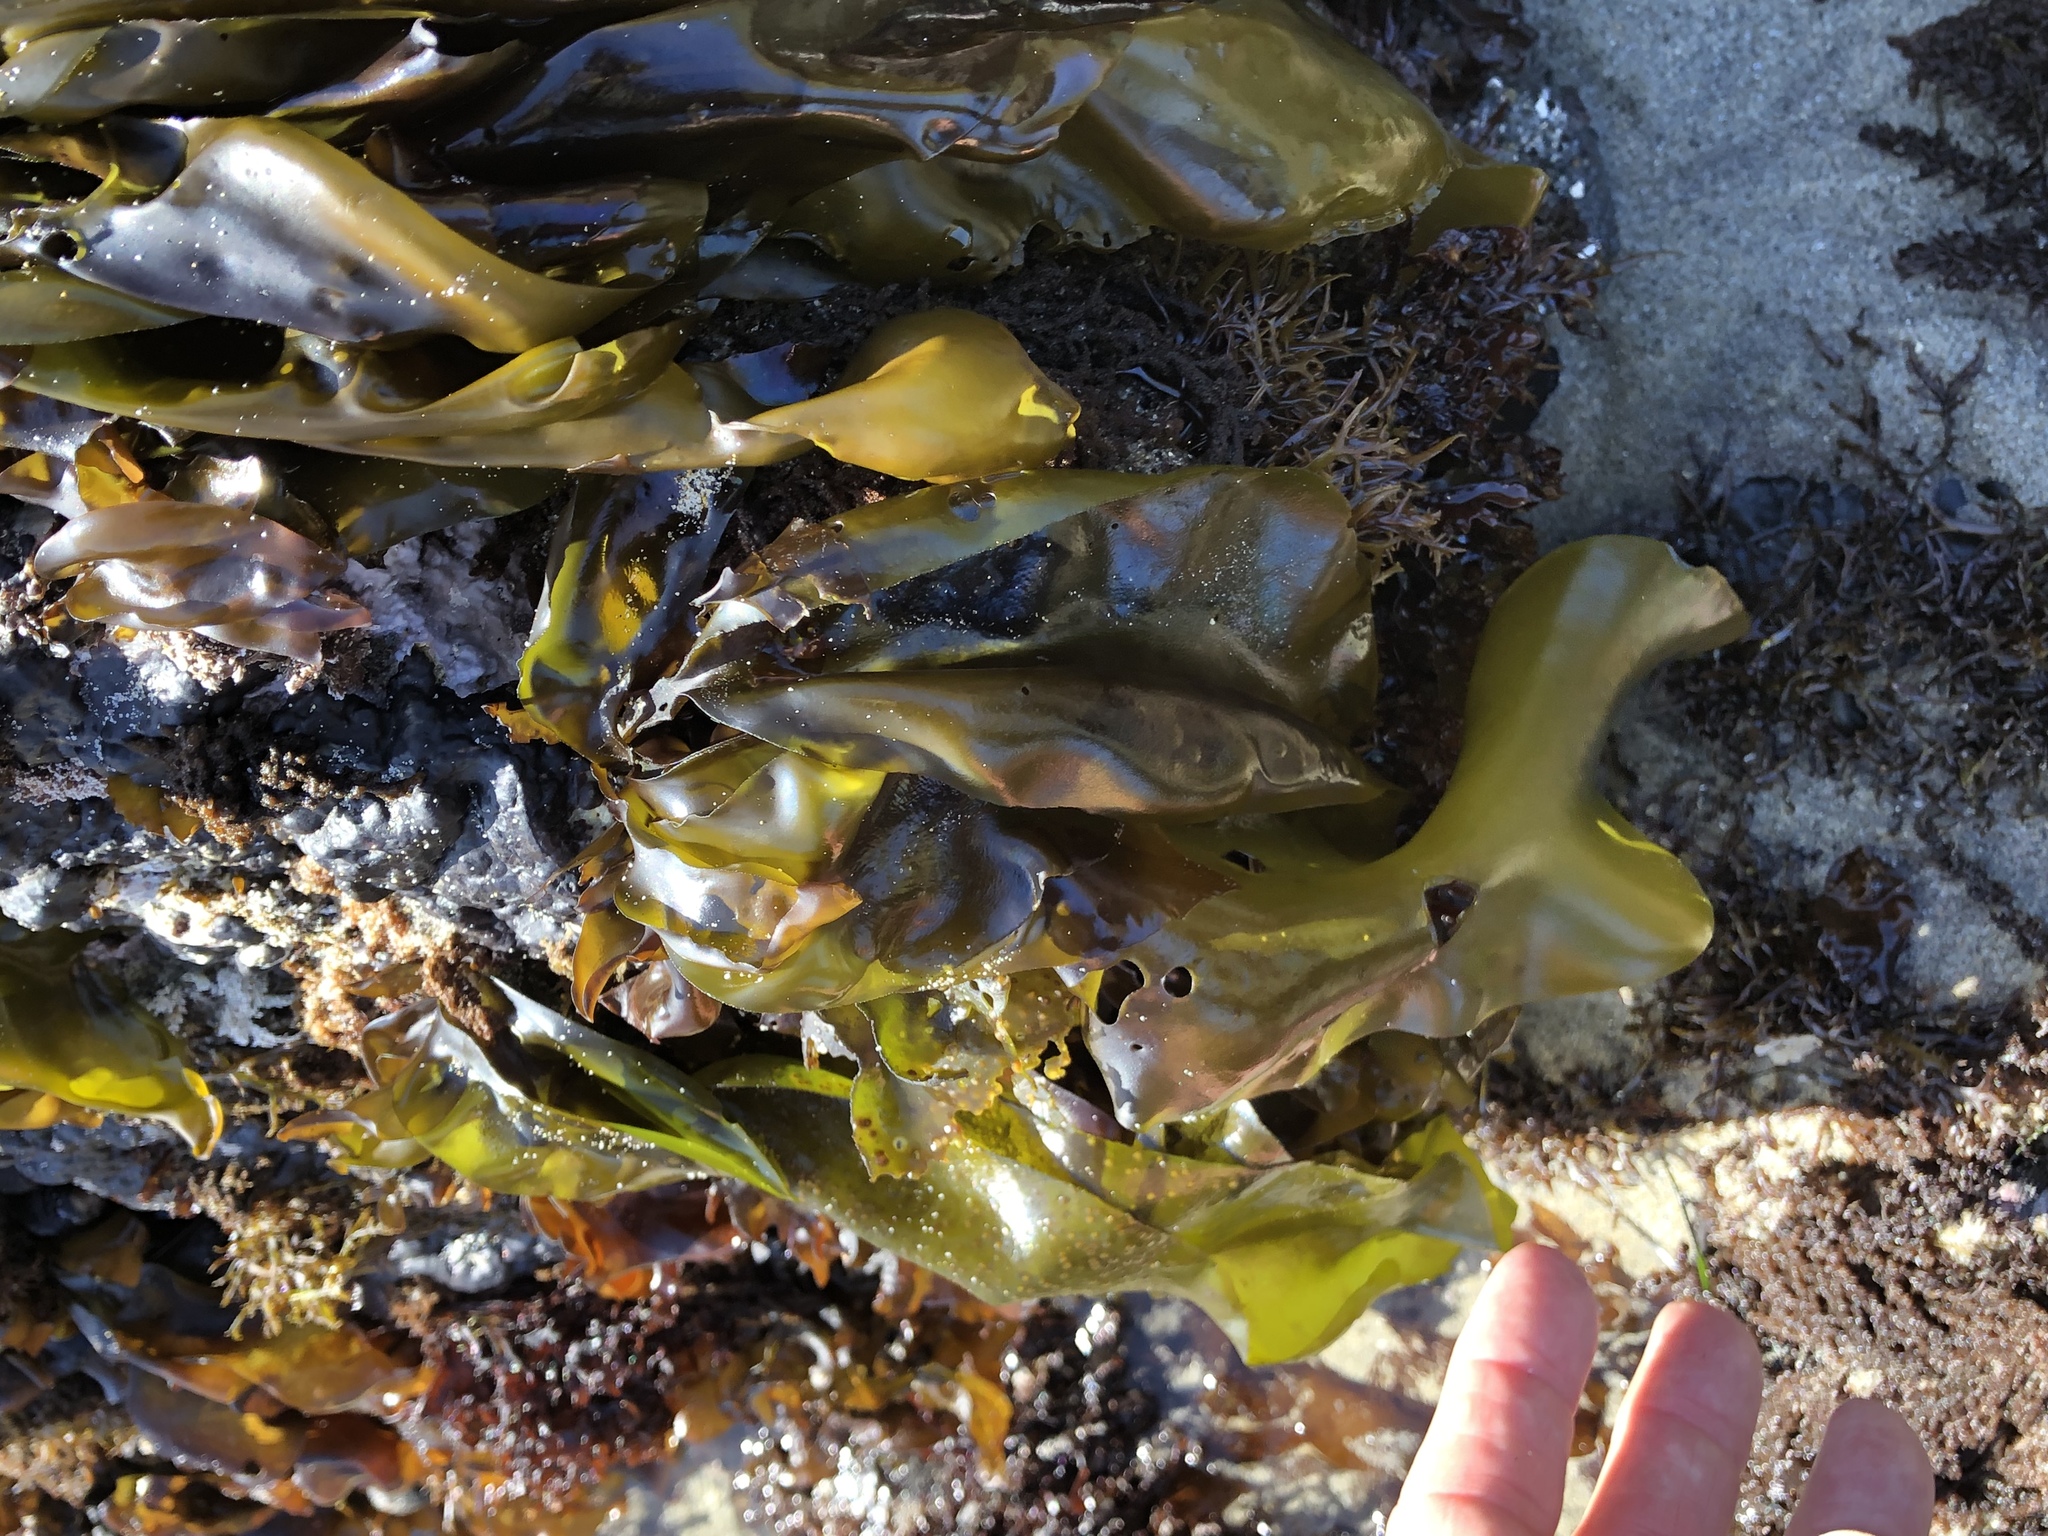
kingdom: Plantae
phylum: Rhodophyta
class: Florideophyceae
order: Gigartinales
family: Gigartinaceae
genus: Mazzaella
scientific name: Mazzaella splendens
